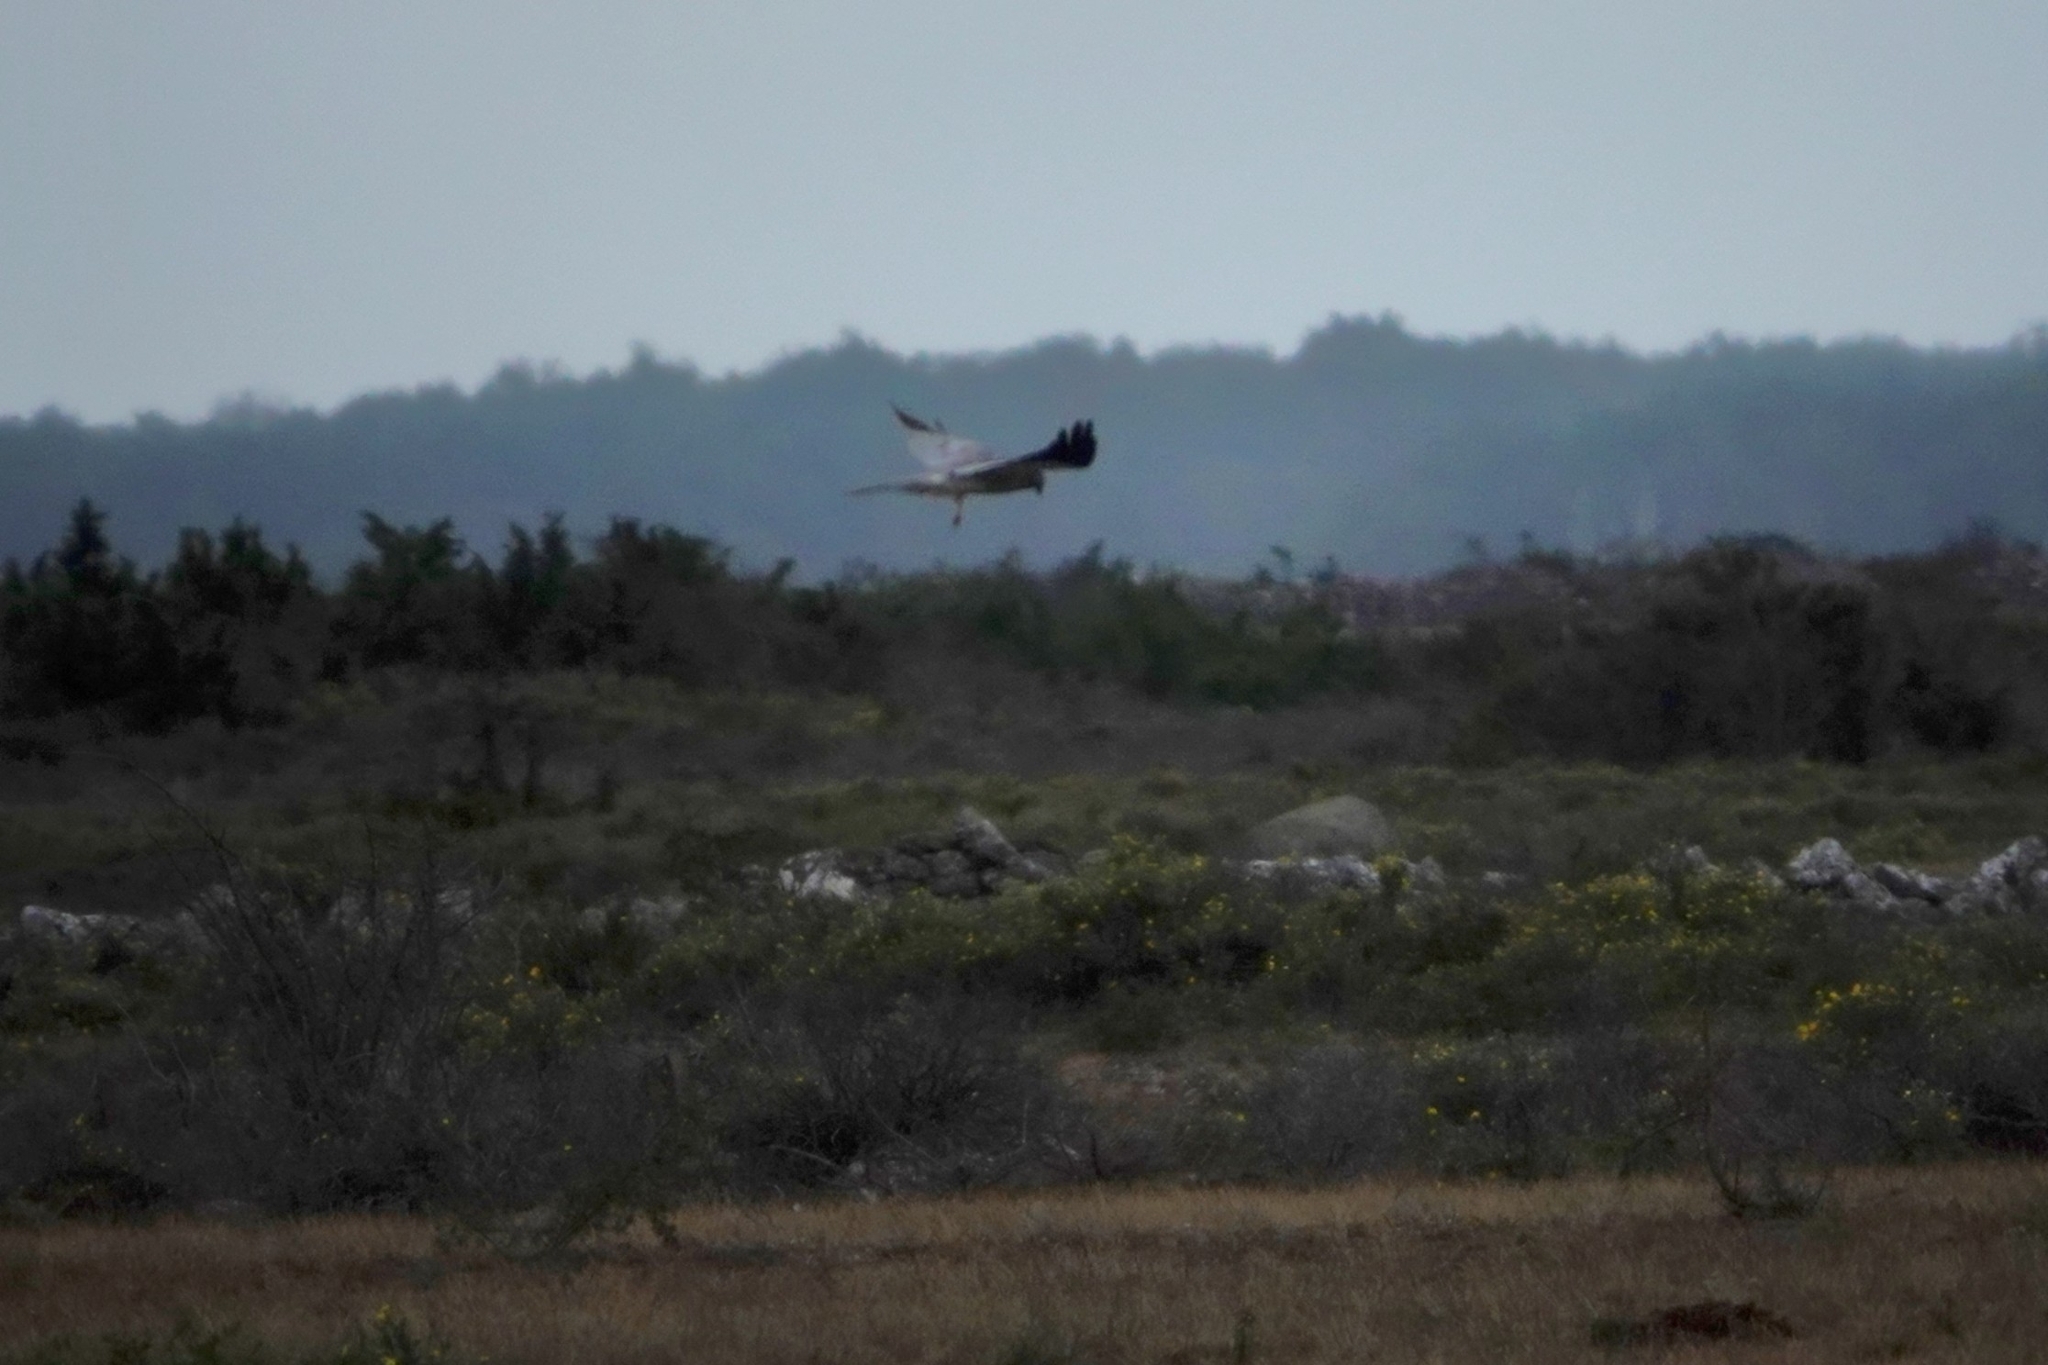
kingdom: Animalia
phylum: Chordata
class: Aves
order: Accipitriformes
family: Accipitridae
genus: Circus
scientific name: Circus pygargus
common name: Montagu's harrier
